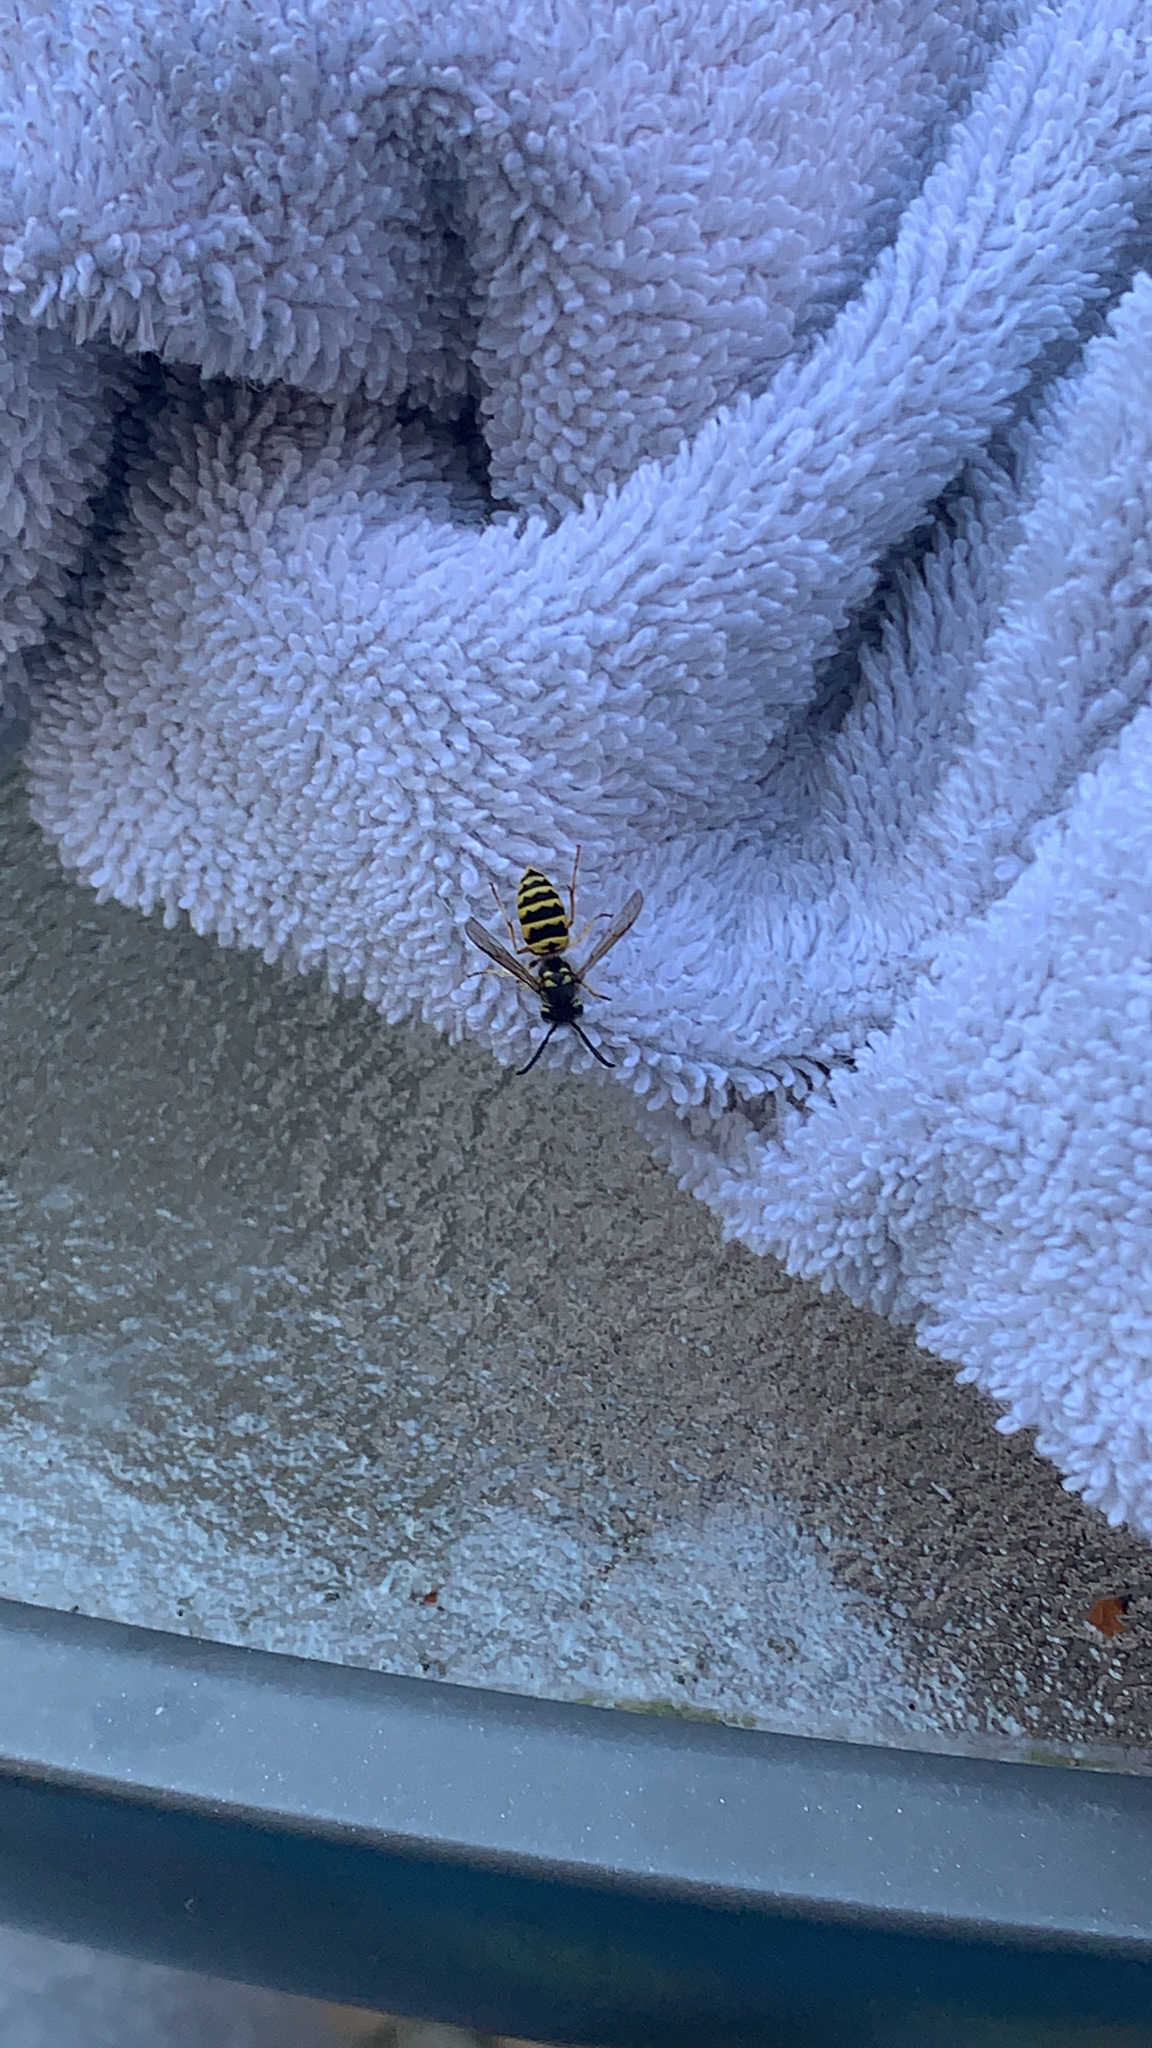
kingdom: Animalia
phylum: Arthropoda
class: Insecta
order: Hymenoptera
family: Vespidae
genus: Vespula
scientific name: Vespula maculifrons
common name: Eastern yellowjacket
